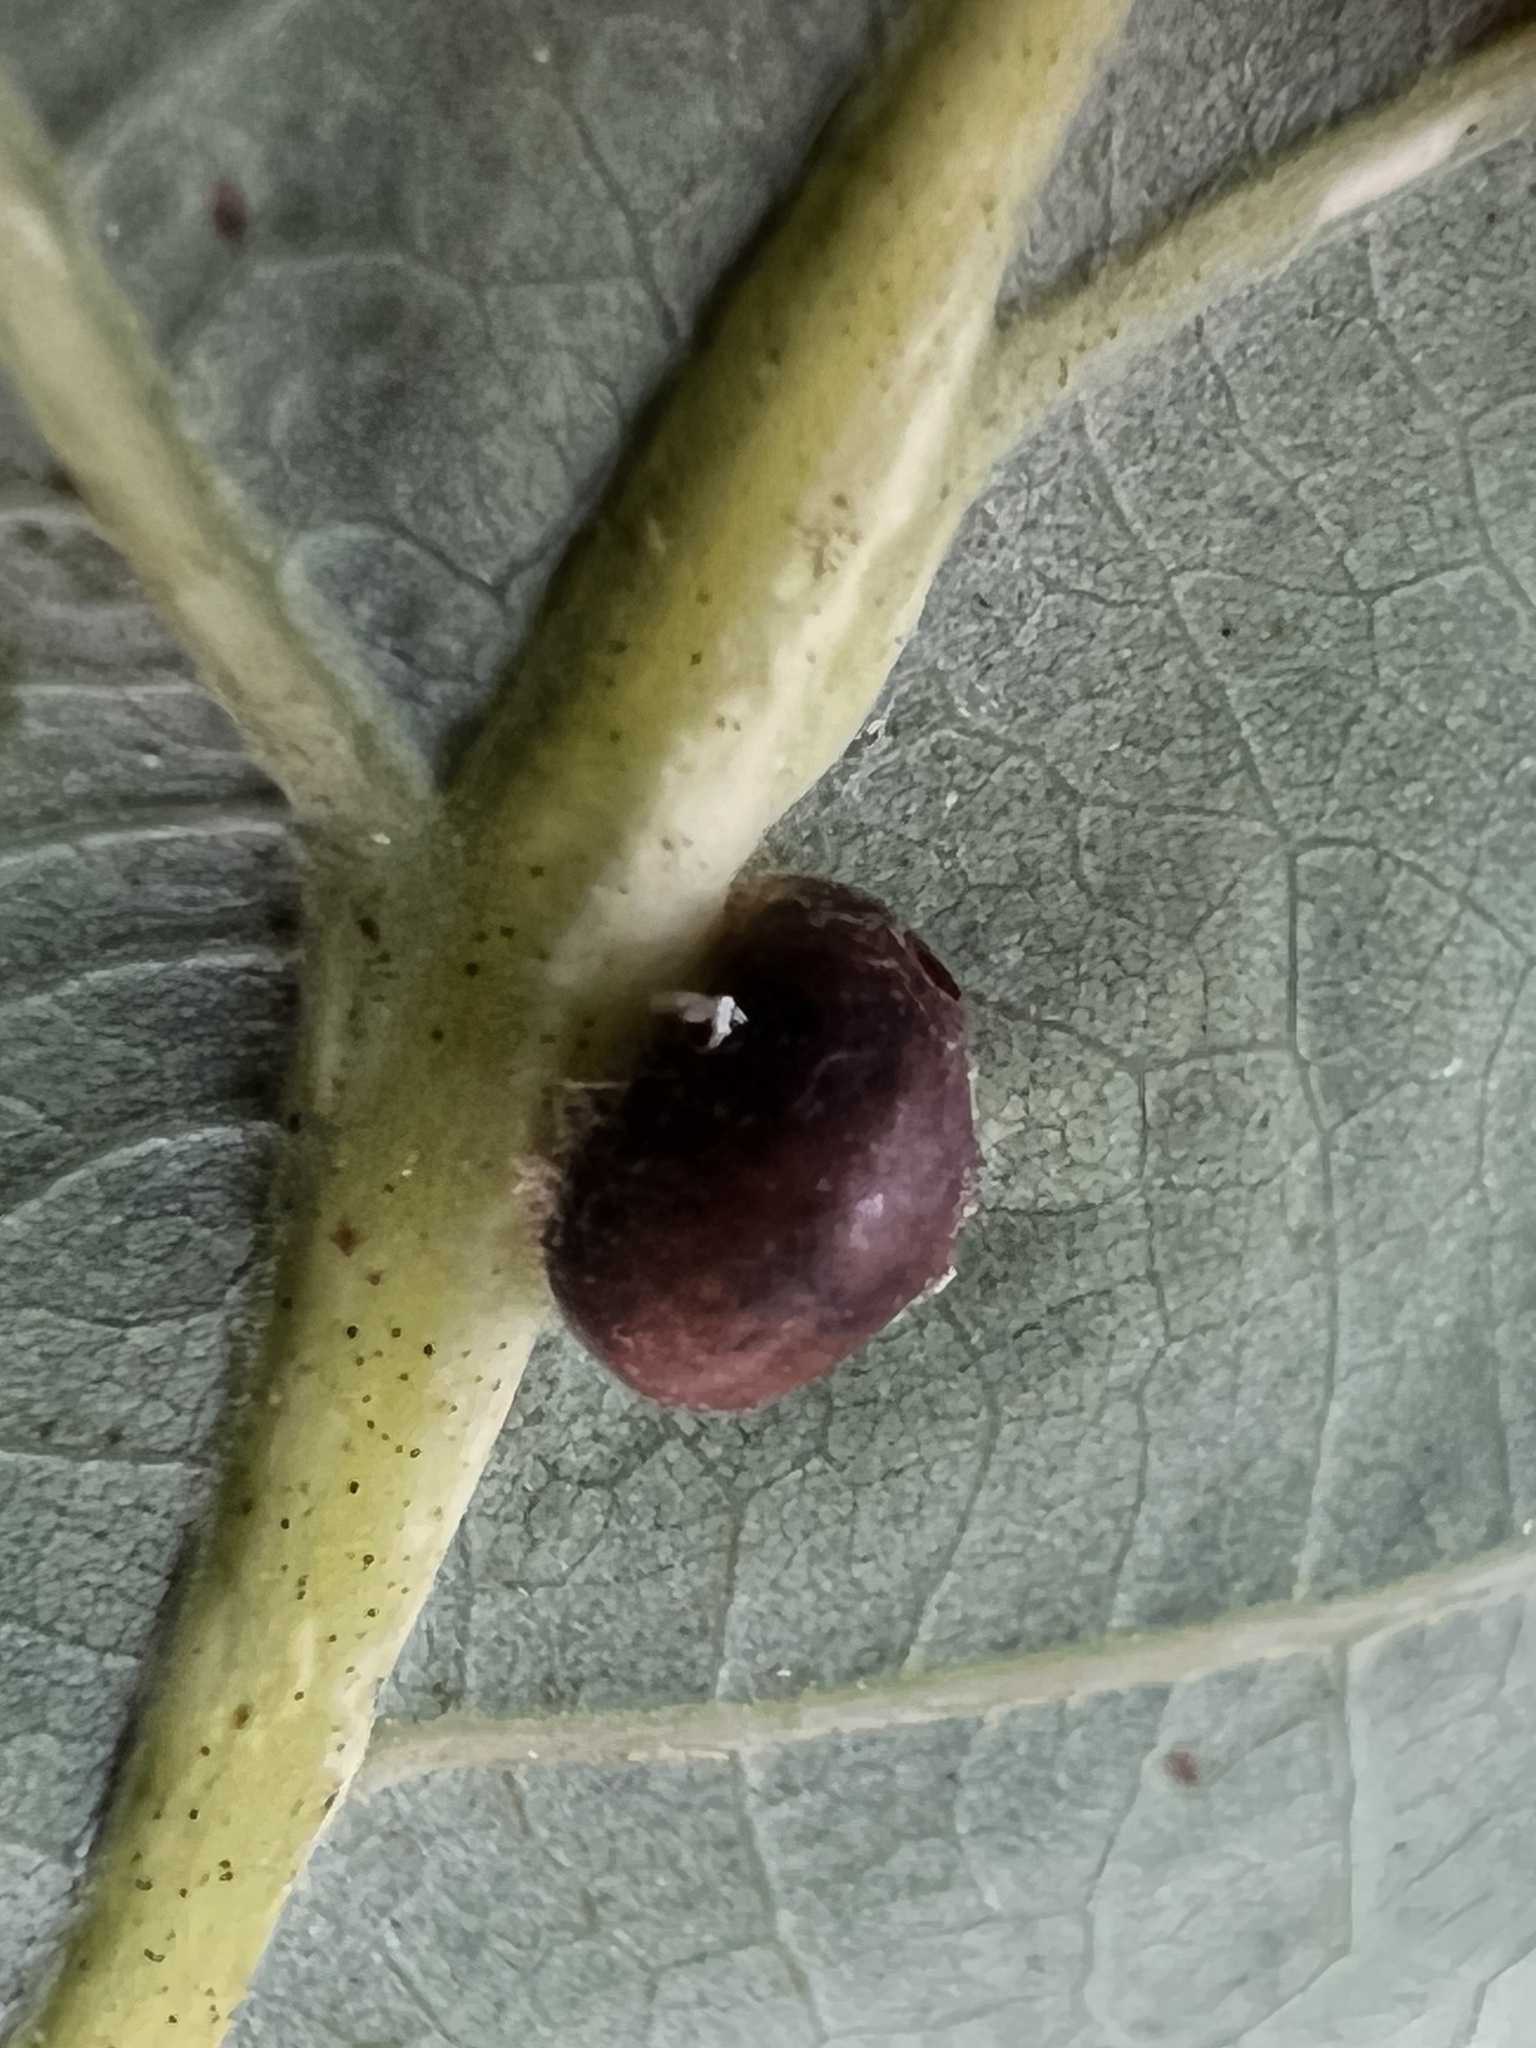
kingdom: Animalia
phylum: Arthropoda
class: Insecta
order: Hemiptera
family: Kermesidae
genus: Nanokermes
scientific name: Nanokermes folium
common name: Leaf kermes
